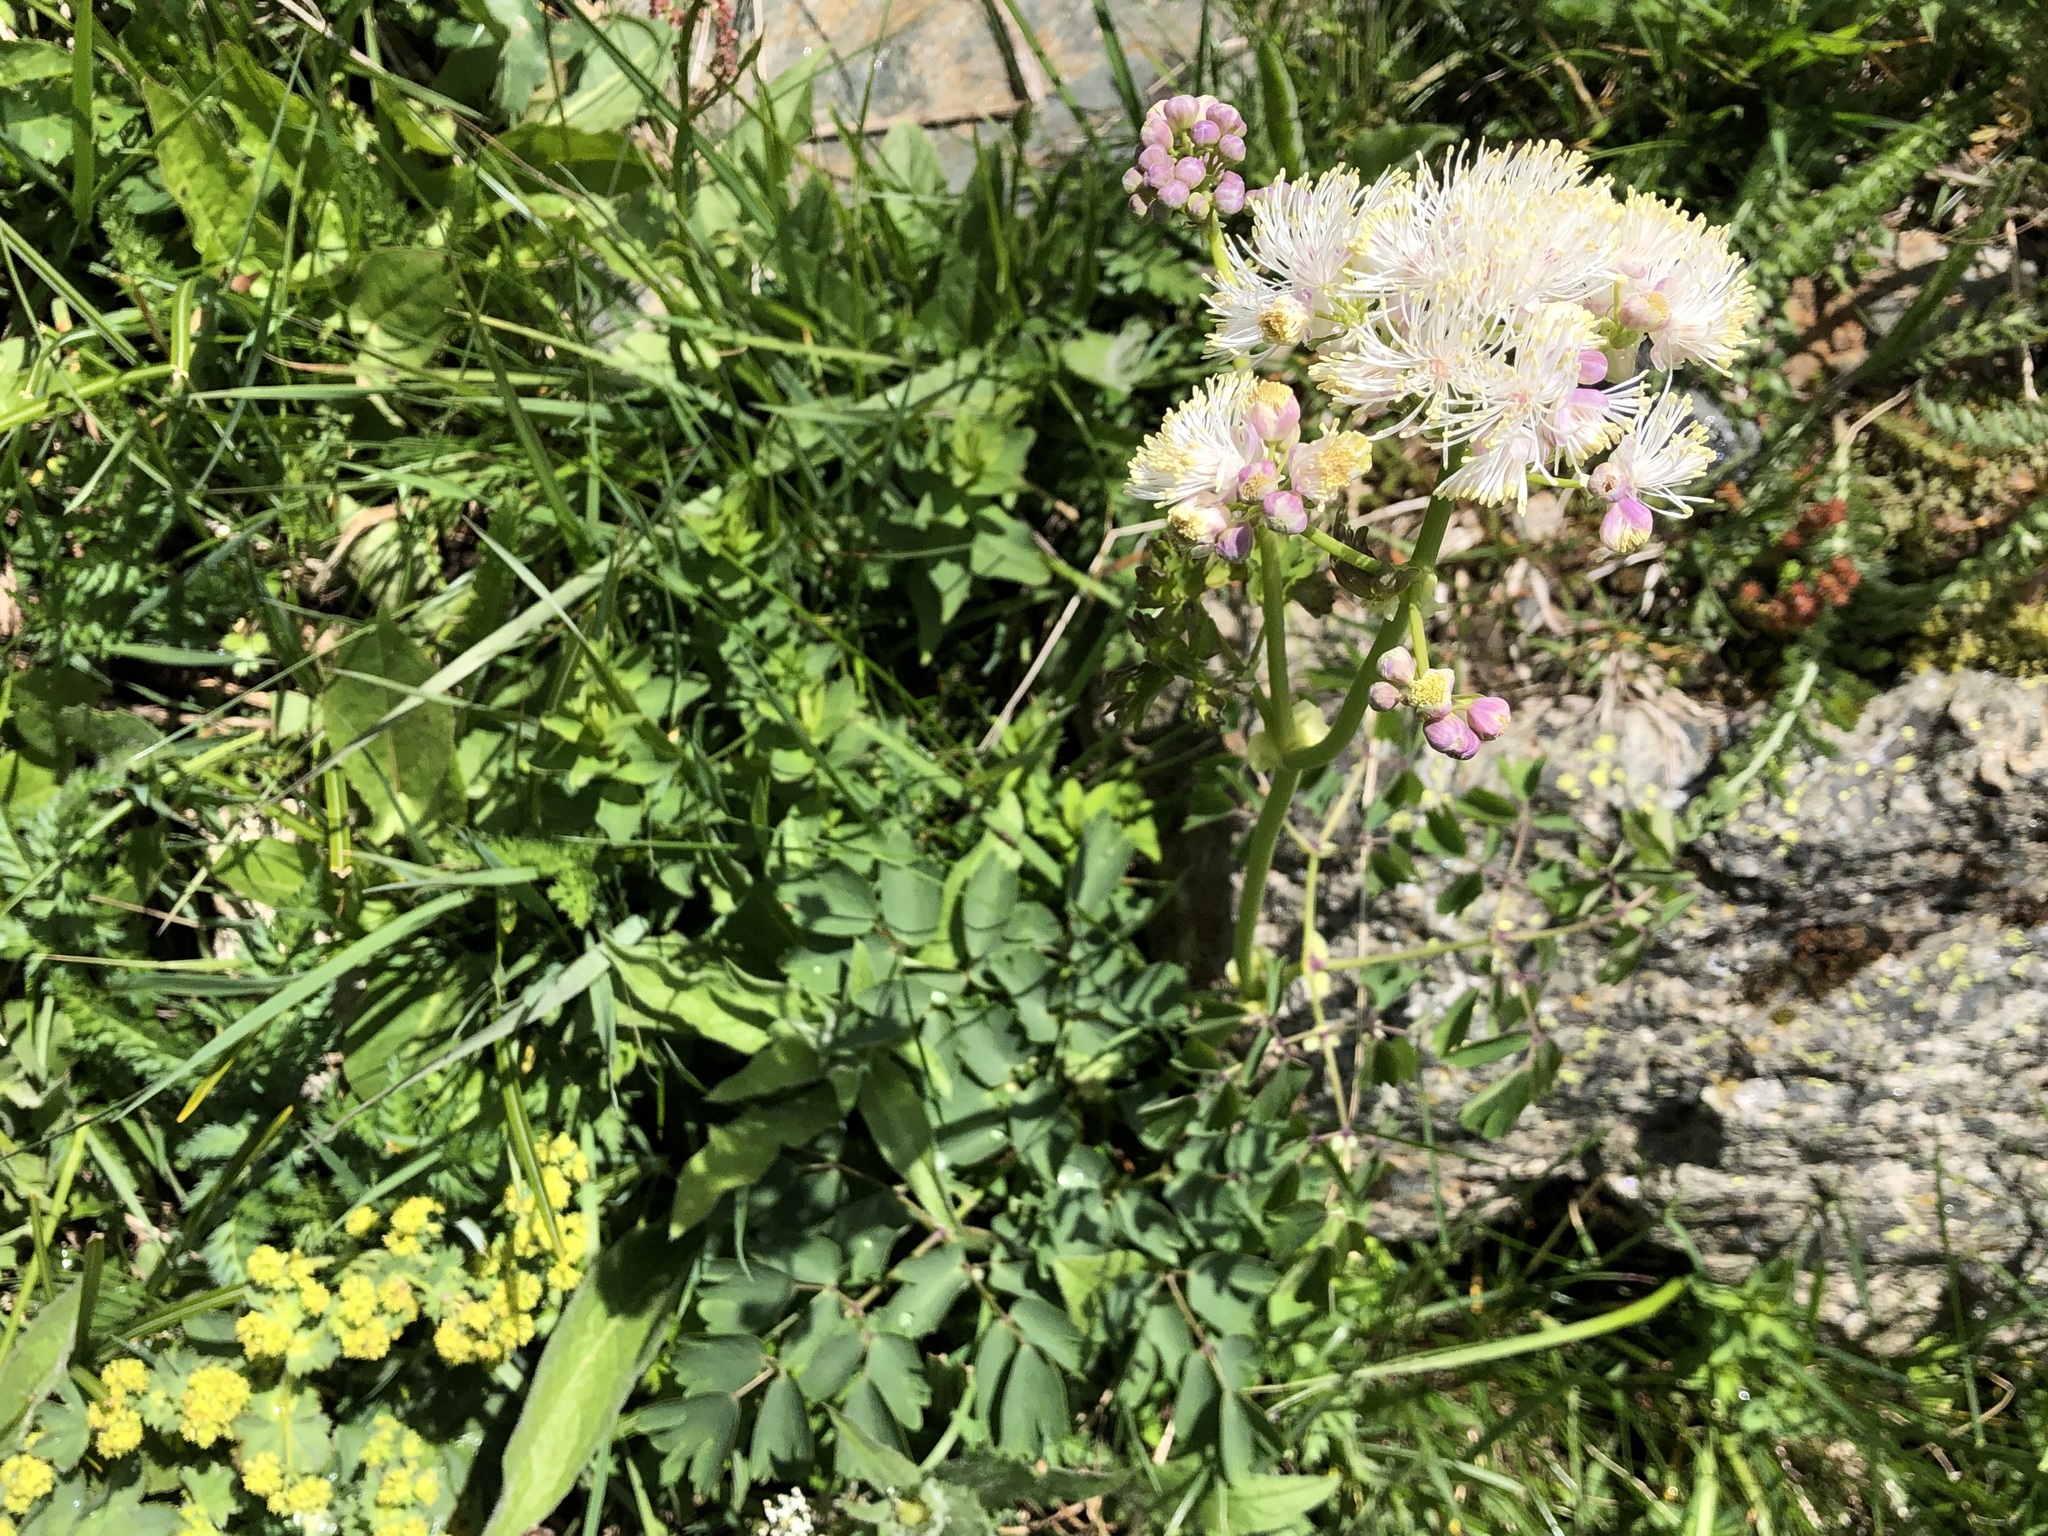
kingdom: Plantae
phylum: Tracheophyta
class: Magnoliopsida
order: Ranunculales
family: Ranunculaceae
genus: Thalictrum
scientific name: Thalictrum aquilegiifolium
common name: French meadow-rue
